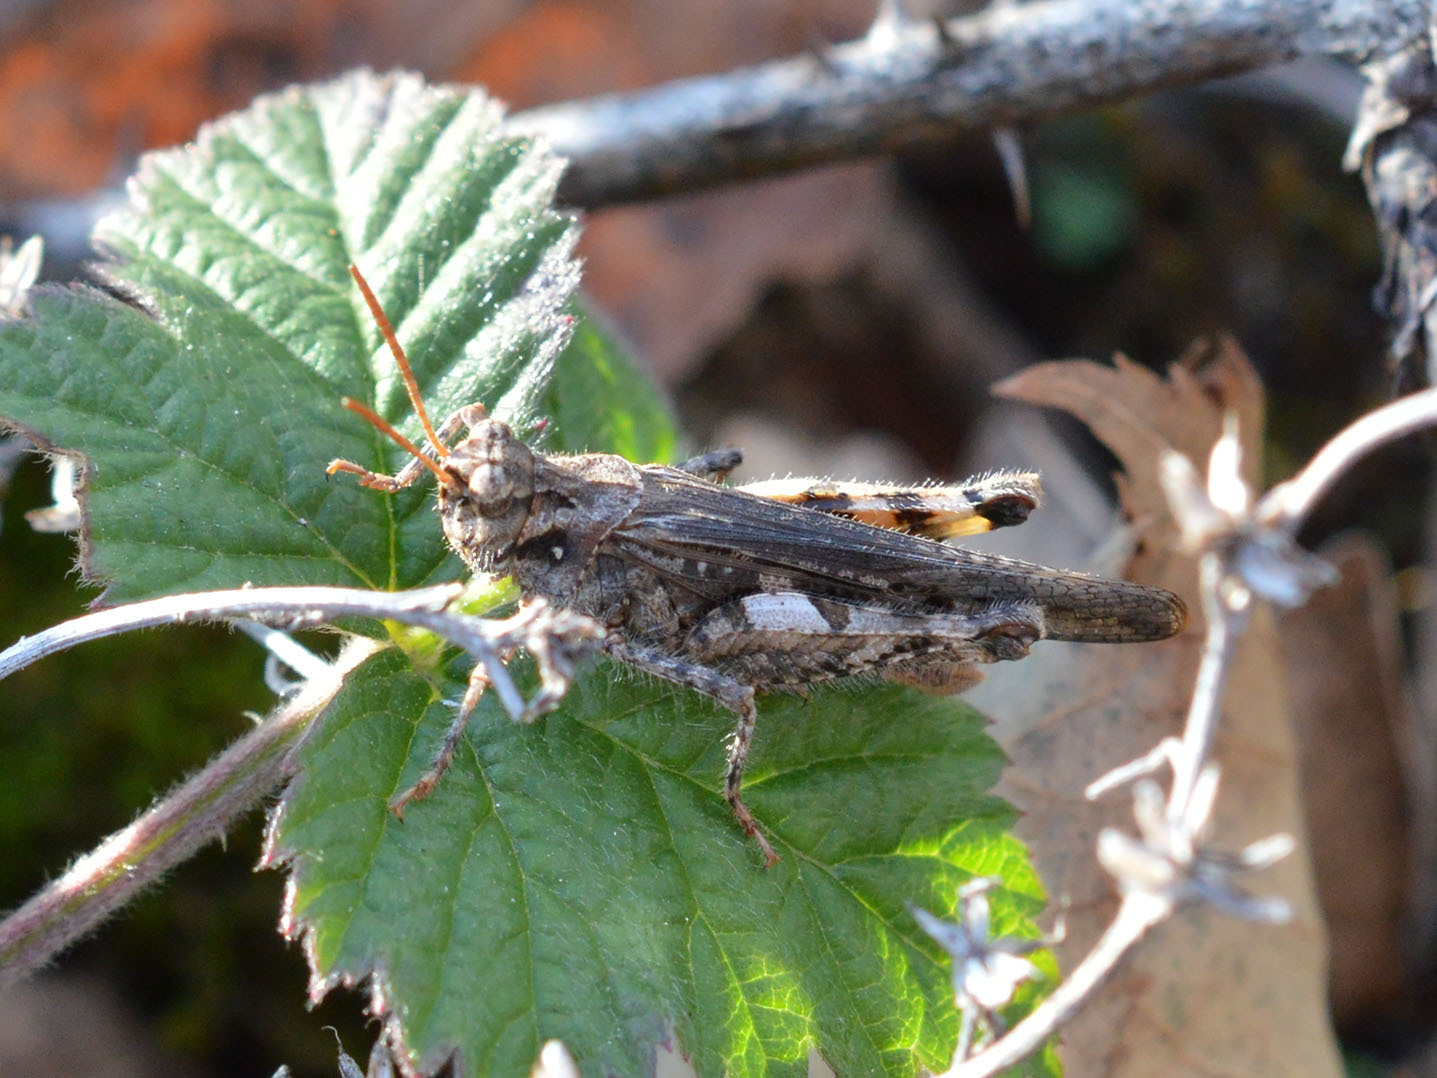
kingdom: Animalia
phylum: Arthropoda
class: Insecta
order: Orthoptera
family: Acrididae
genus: Acrotylus
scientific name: Acrotylus insubricus
